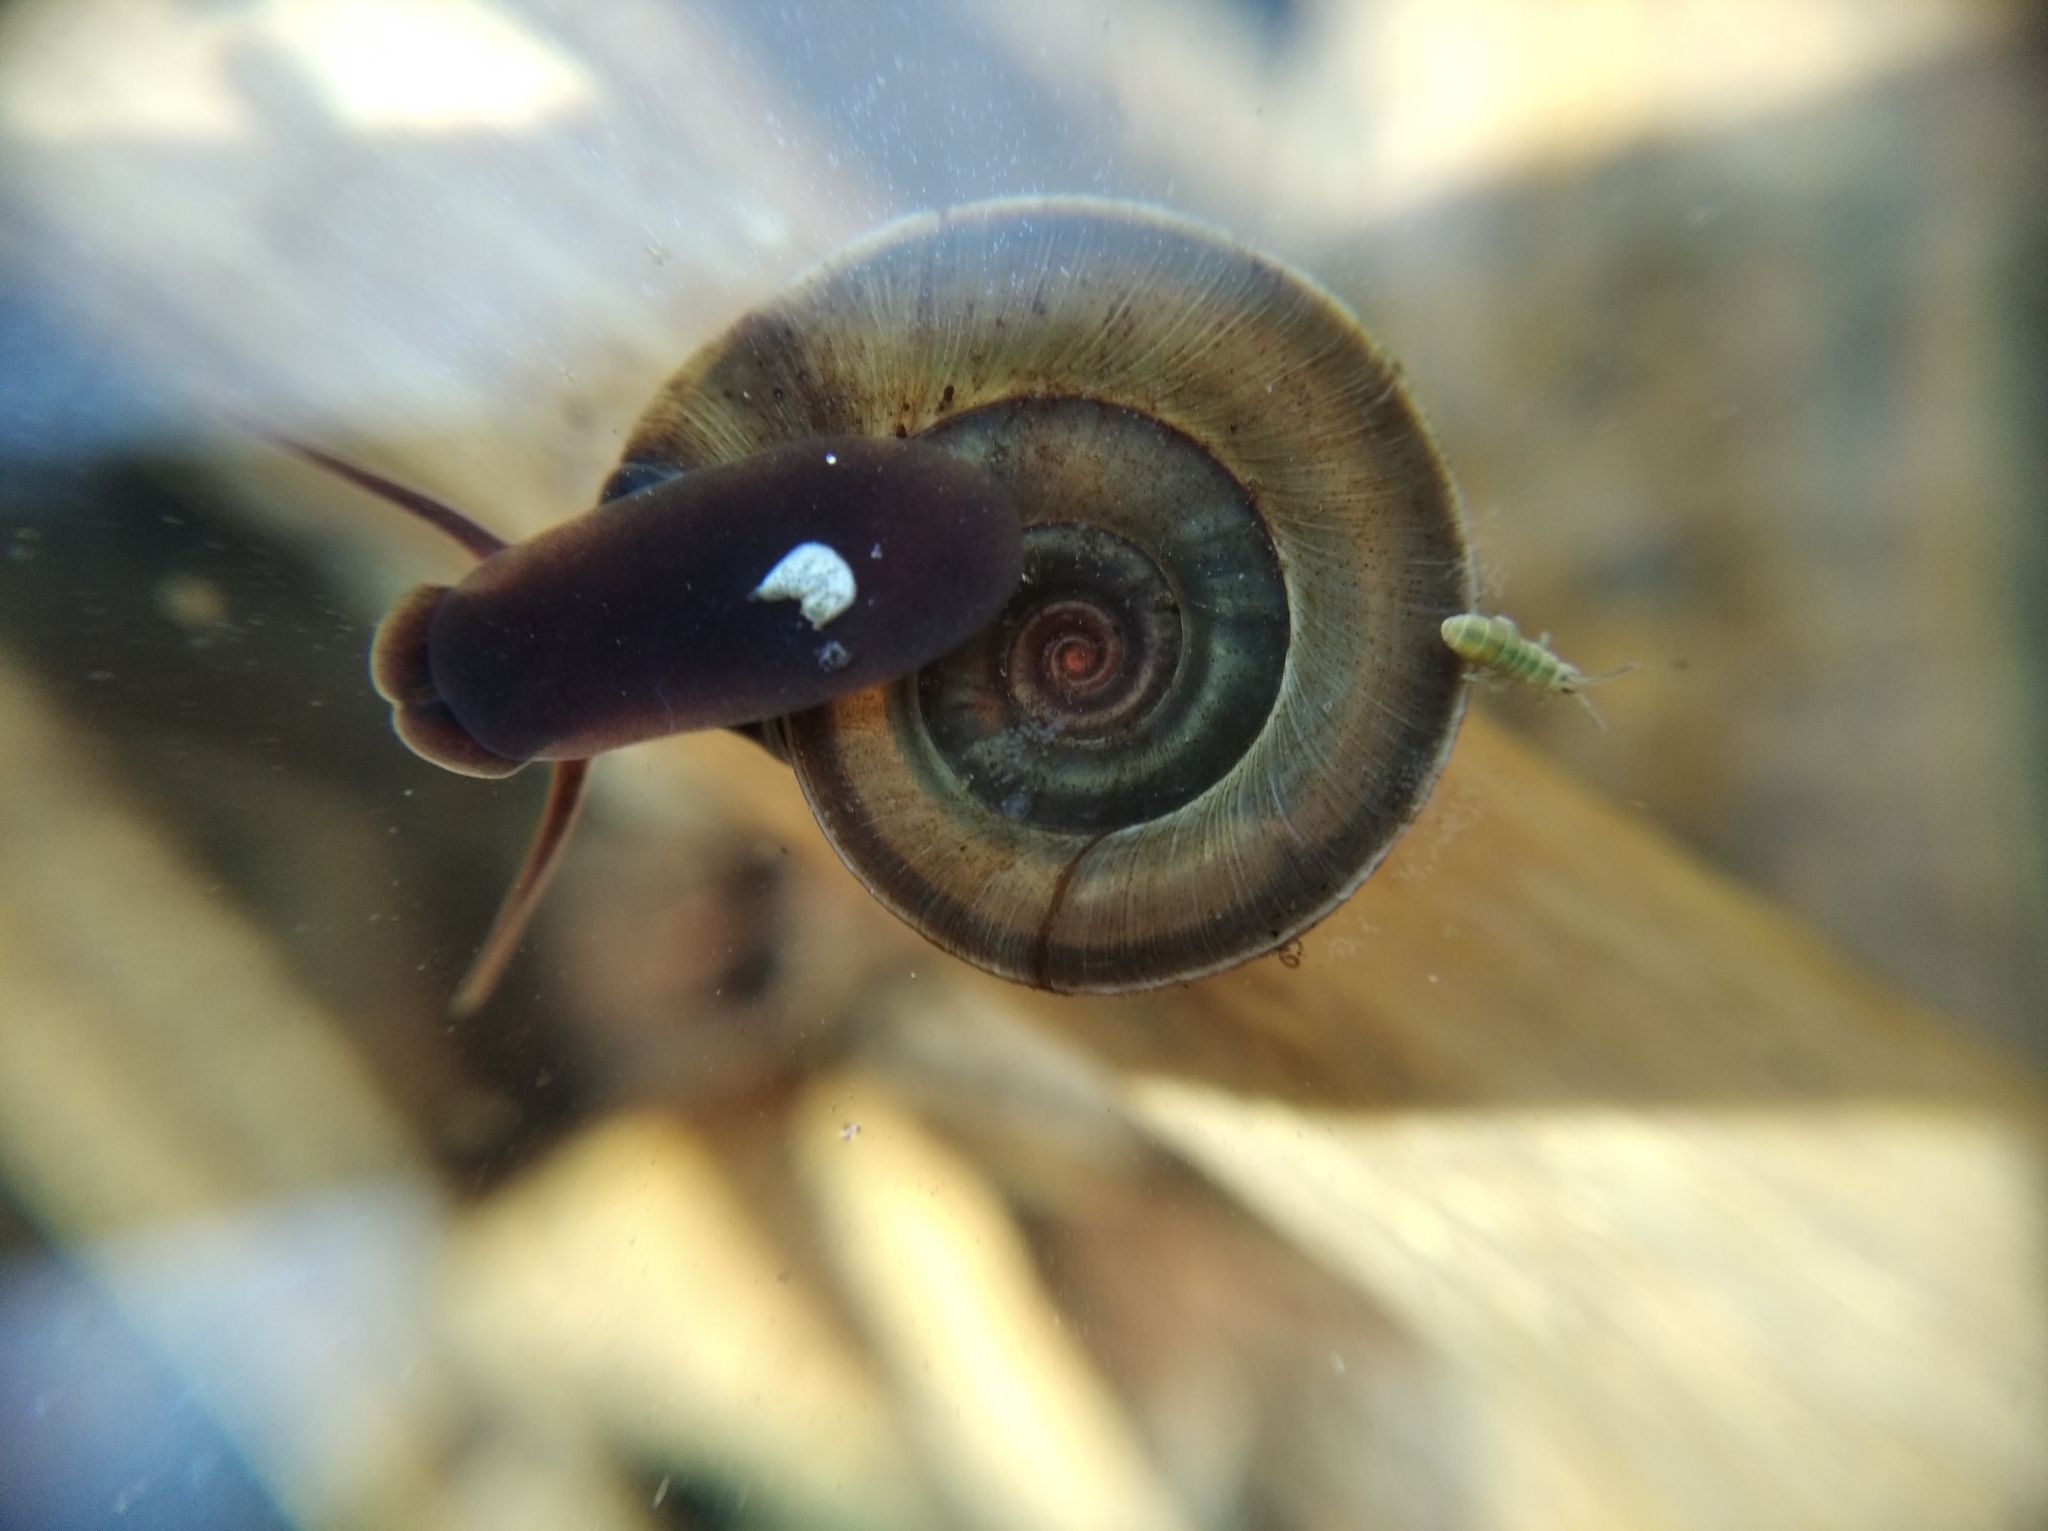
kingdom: Animalia
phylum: Mollusca
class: Gastropoda
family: Planorbidae
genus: Planorbis
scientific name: Planorbis planorbis
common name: Margined ramshorn
